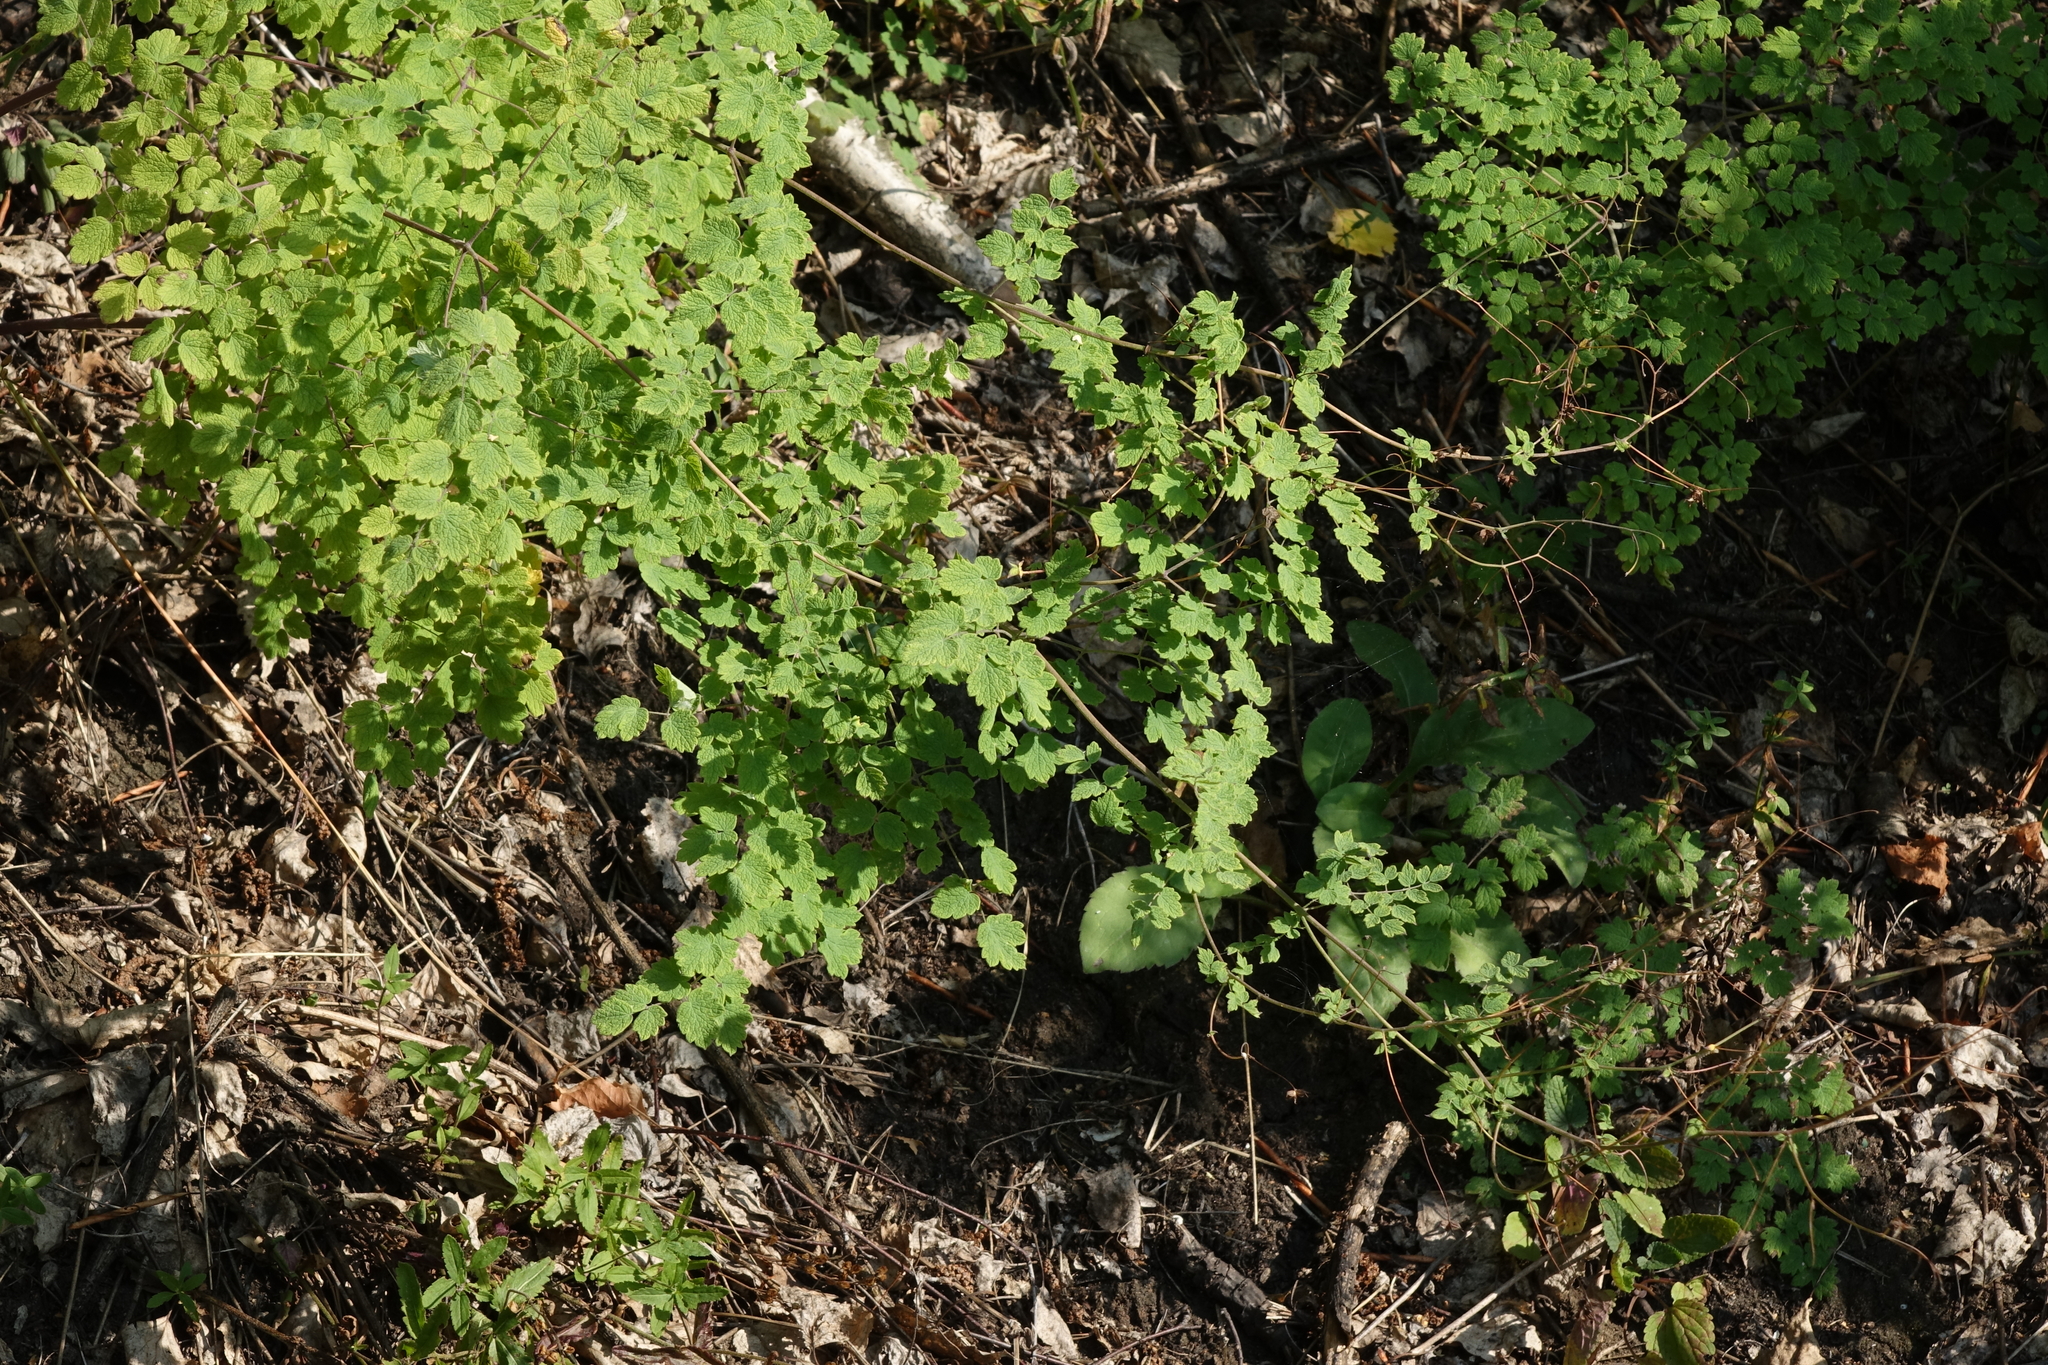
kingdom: Plantae
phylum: Tracheophyta
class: Magnoliopsida
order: Ranunculales
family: Ranunculaceae
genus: Thalictrum
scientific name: Thalictrum foetidum
